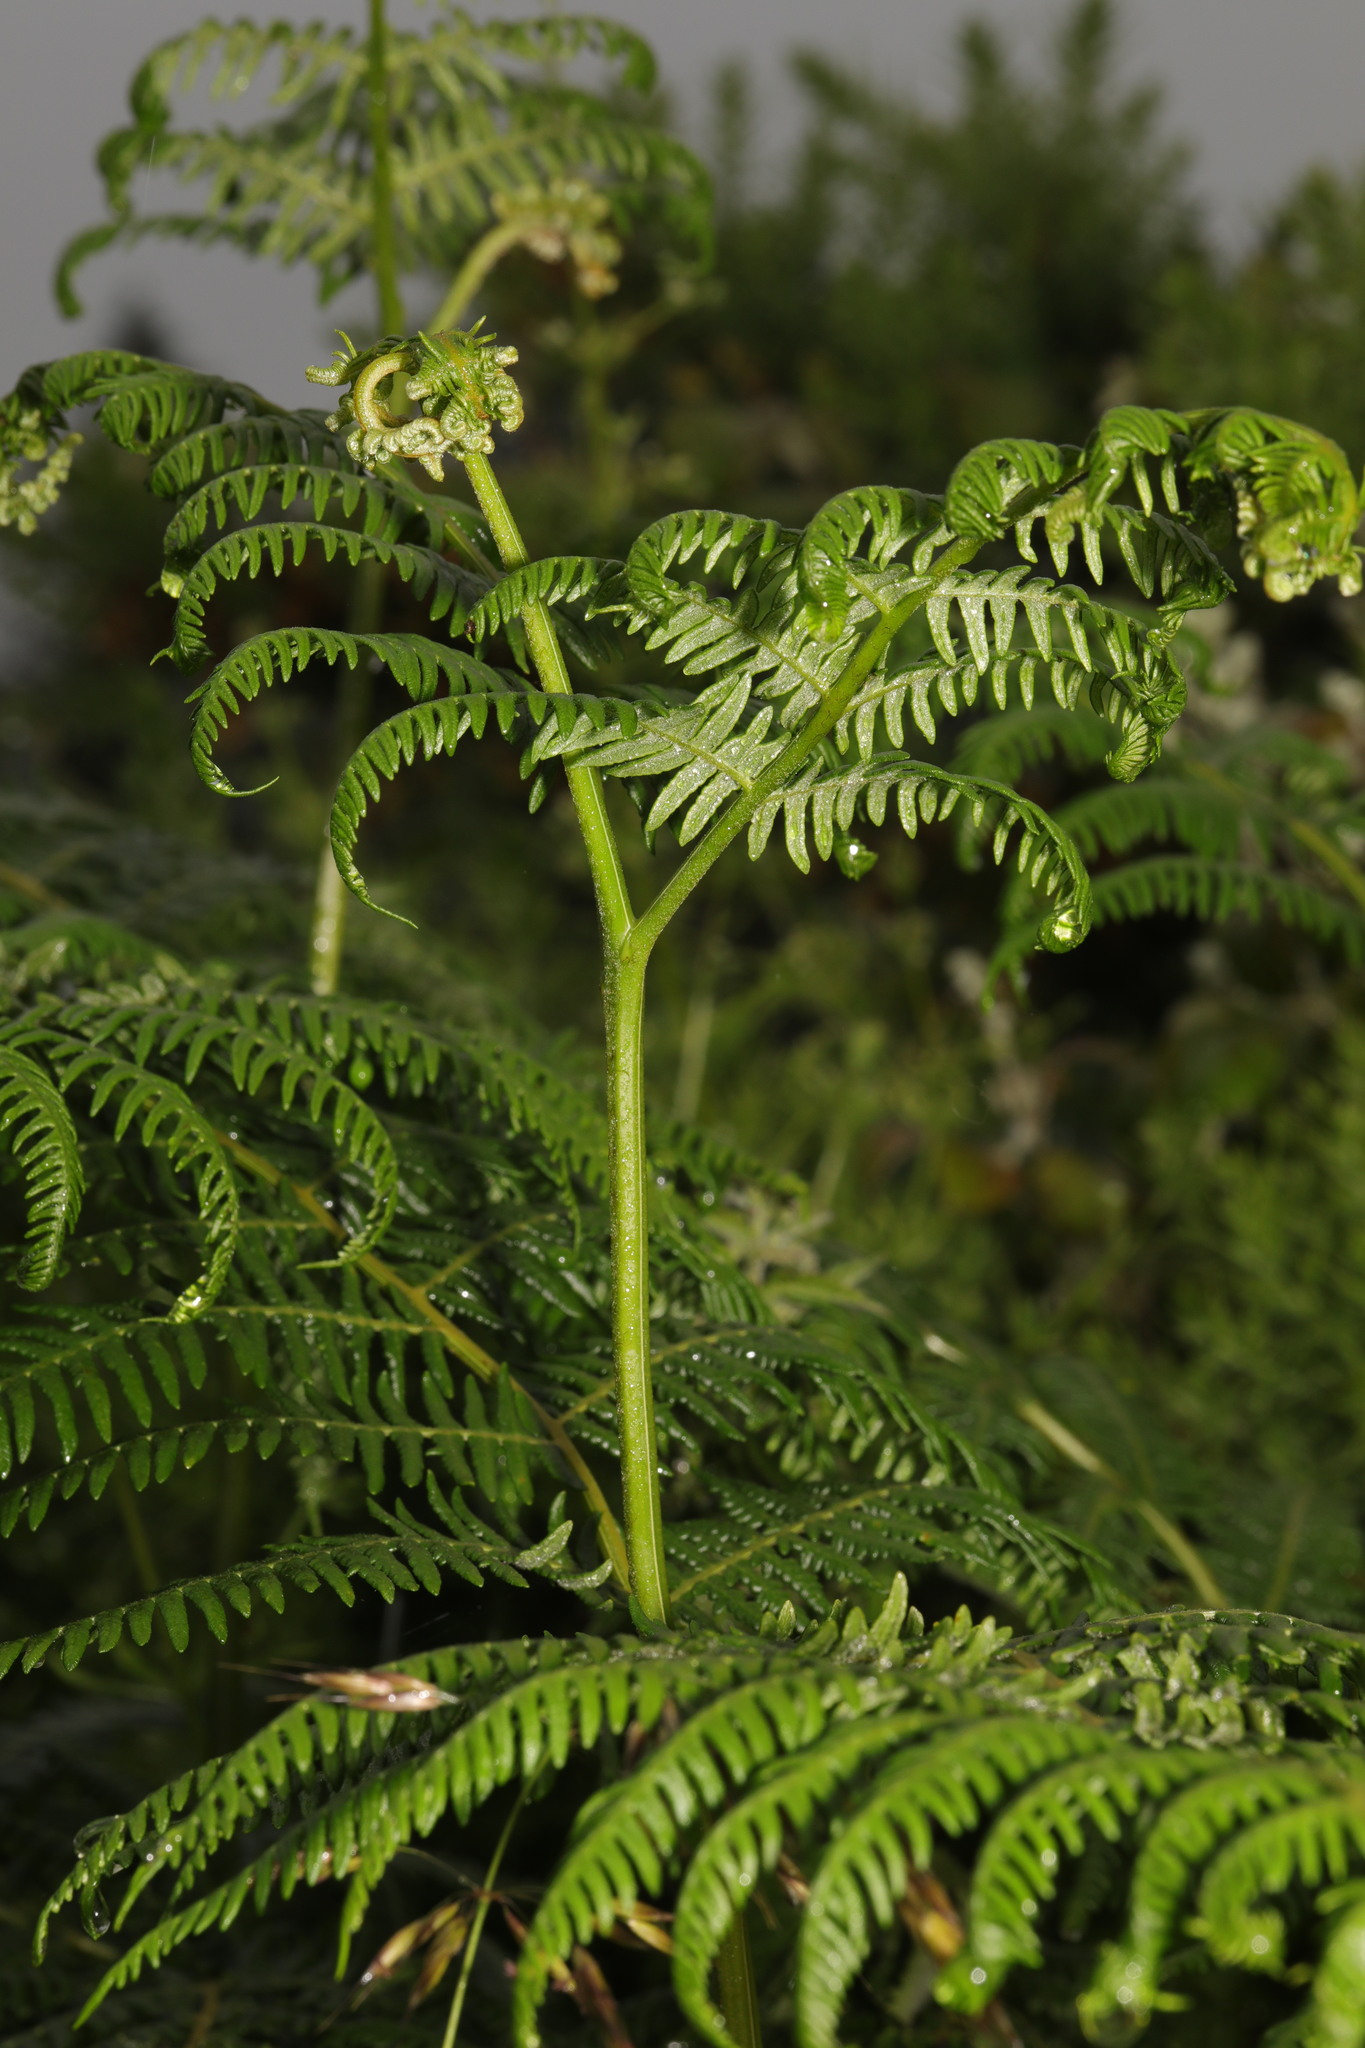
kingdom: Plantae
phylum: Tracheophyta
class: Polypodiopsida
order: Polypodiales
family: Dennstaedtiaceae
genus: Pteridium
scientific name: Pteridium aquilinum
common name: Bracken
